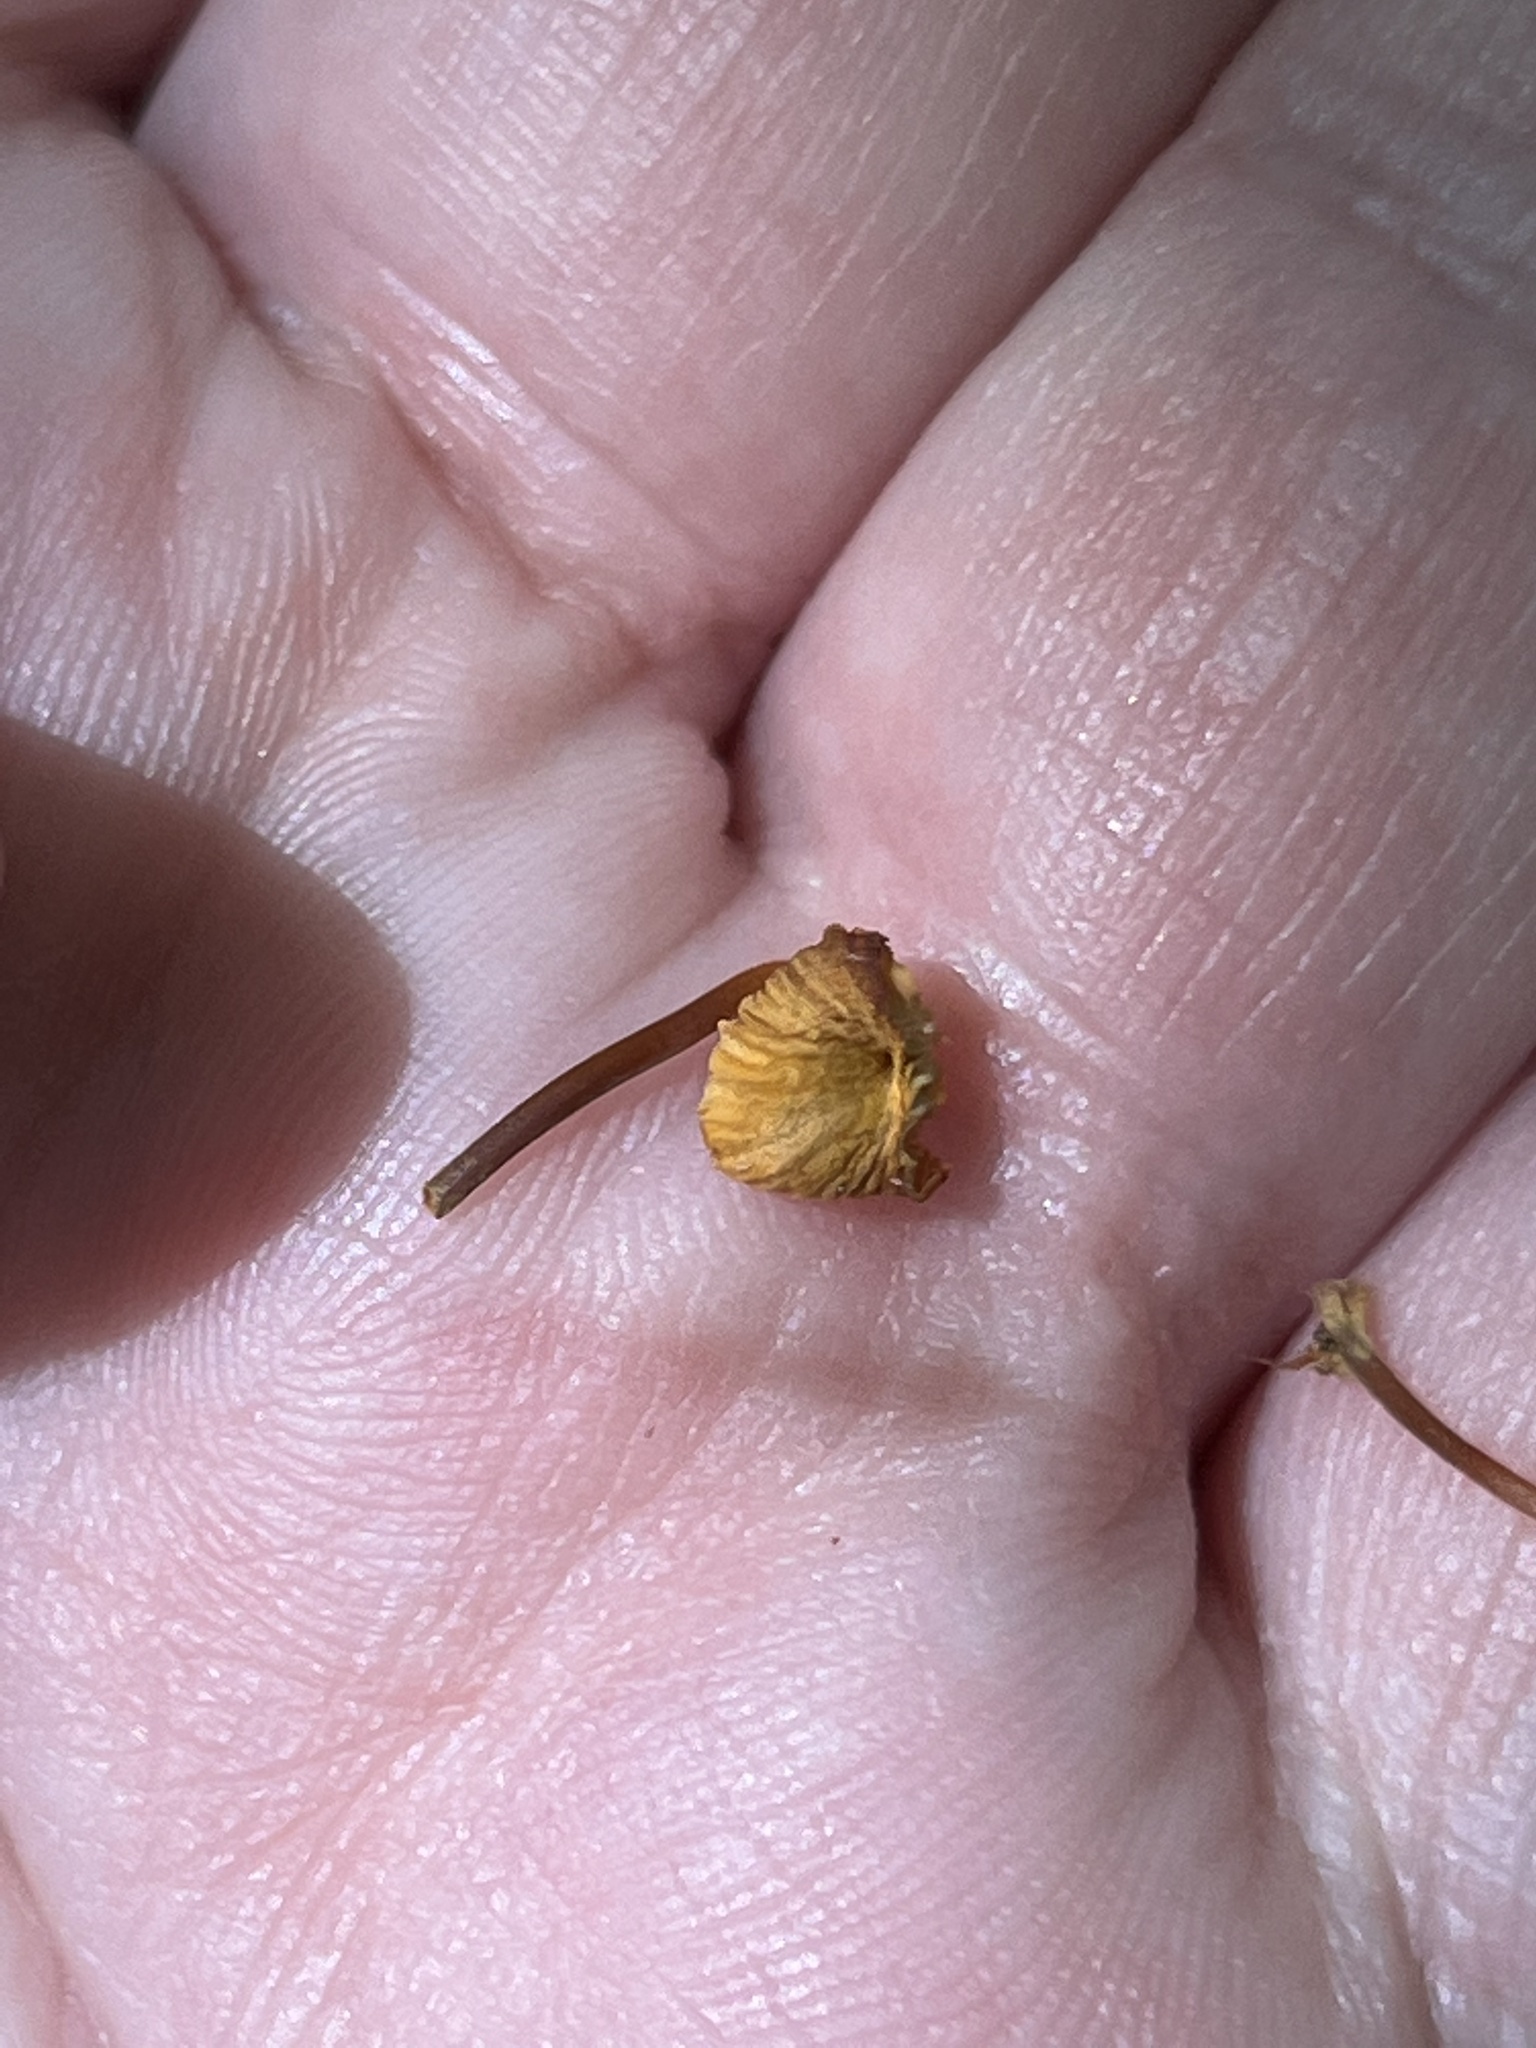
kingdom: Fungi
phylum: Basidiomycota
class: Agaricomycetes
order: Agaricales
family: Mycenaceae
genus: Xeromphalina
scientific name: Xeromphalina campanella
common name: Pinewood gingertail
